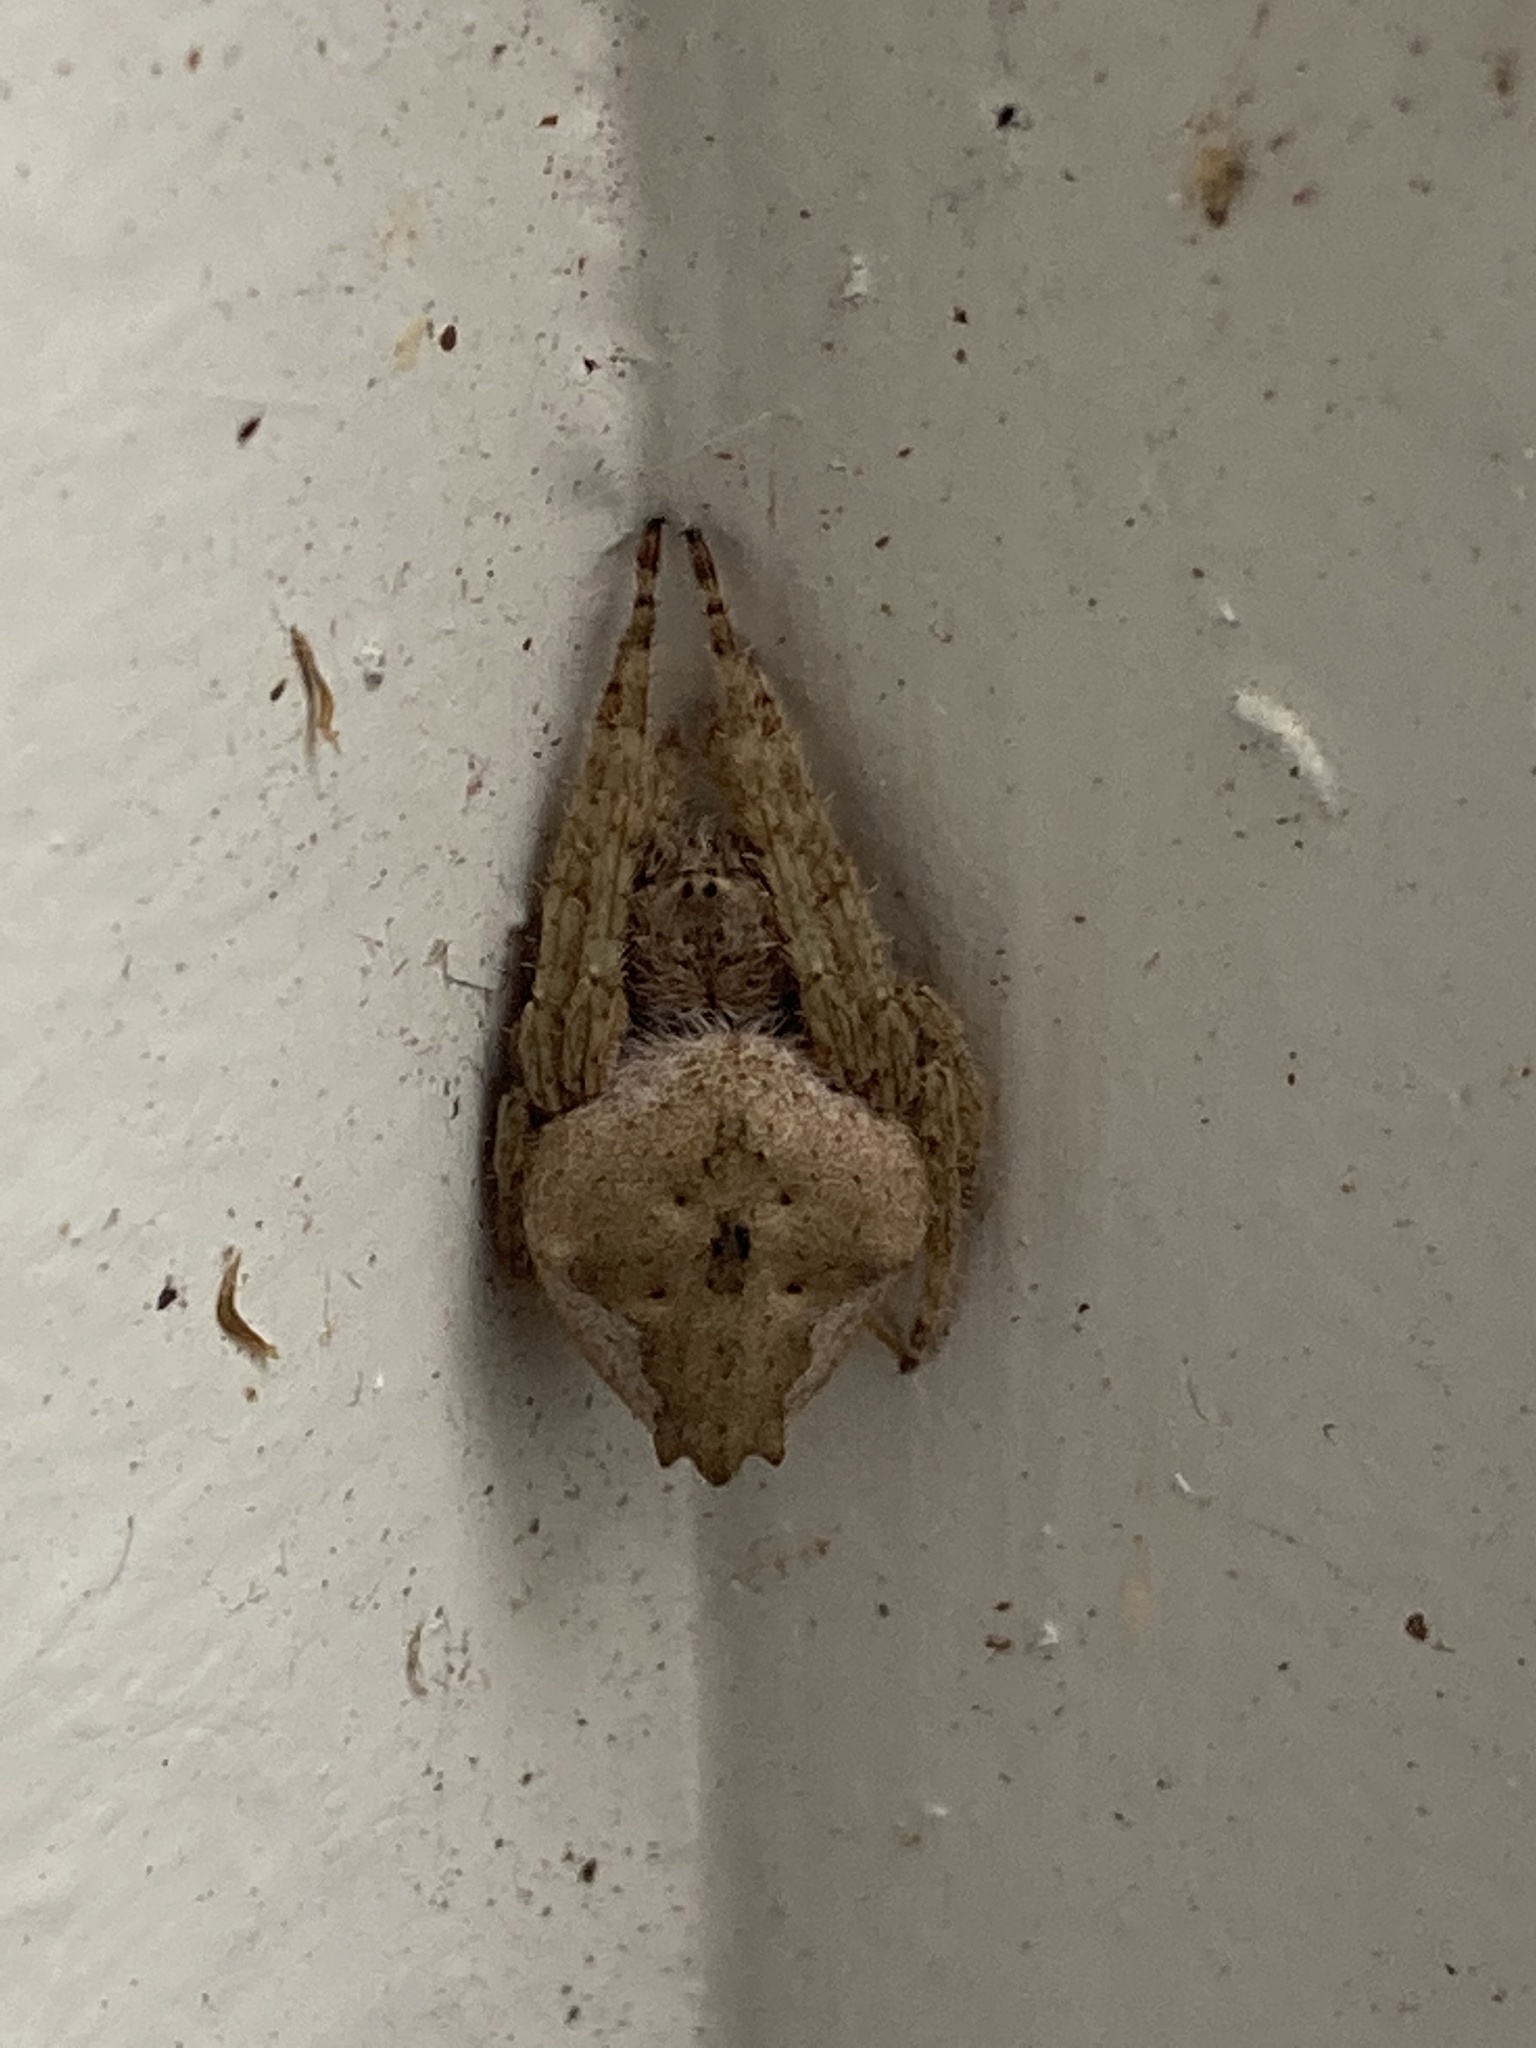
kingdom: Animalia
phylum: Arthropoda
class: Arachnida
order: Araneae
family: Araneidae
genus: Eriophora
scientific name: Eriophora pustulosa
